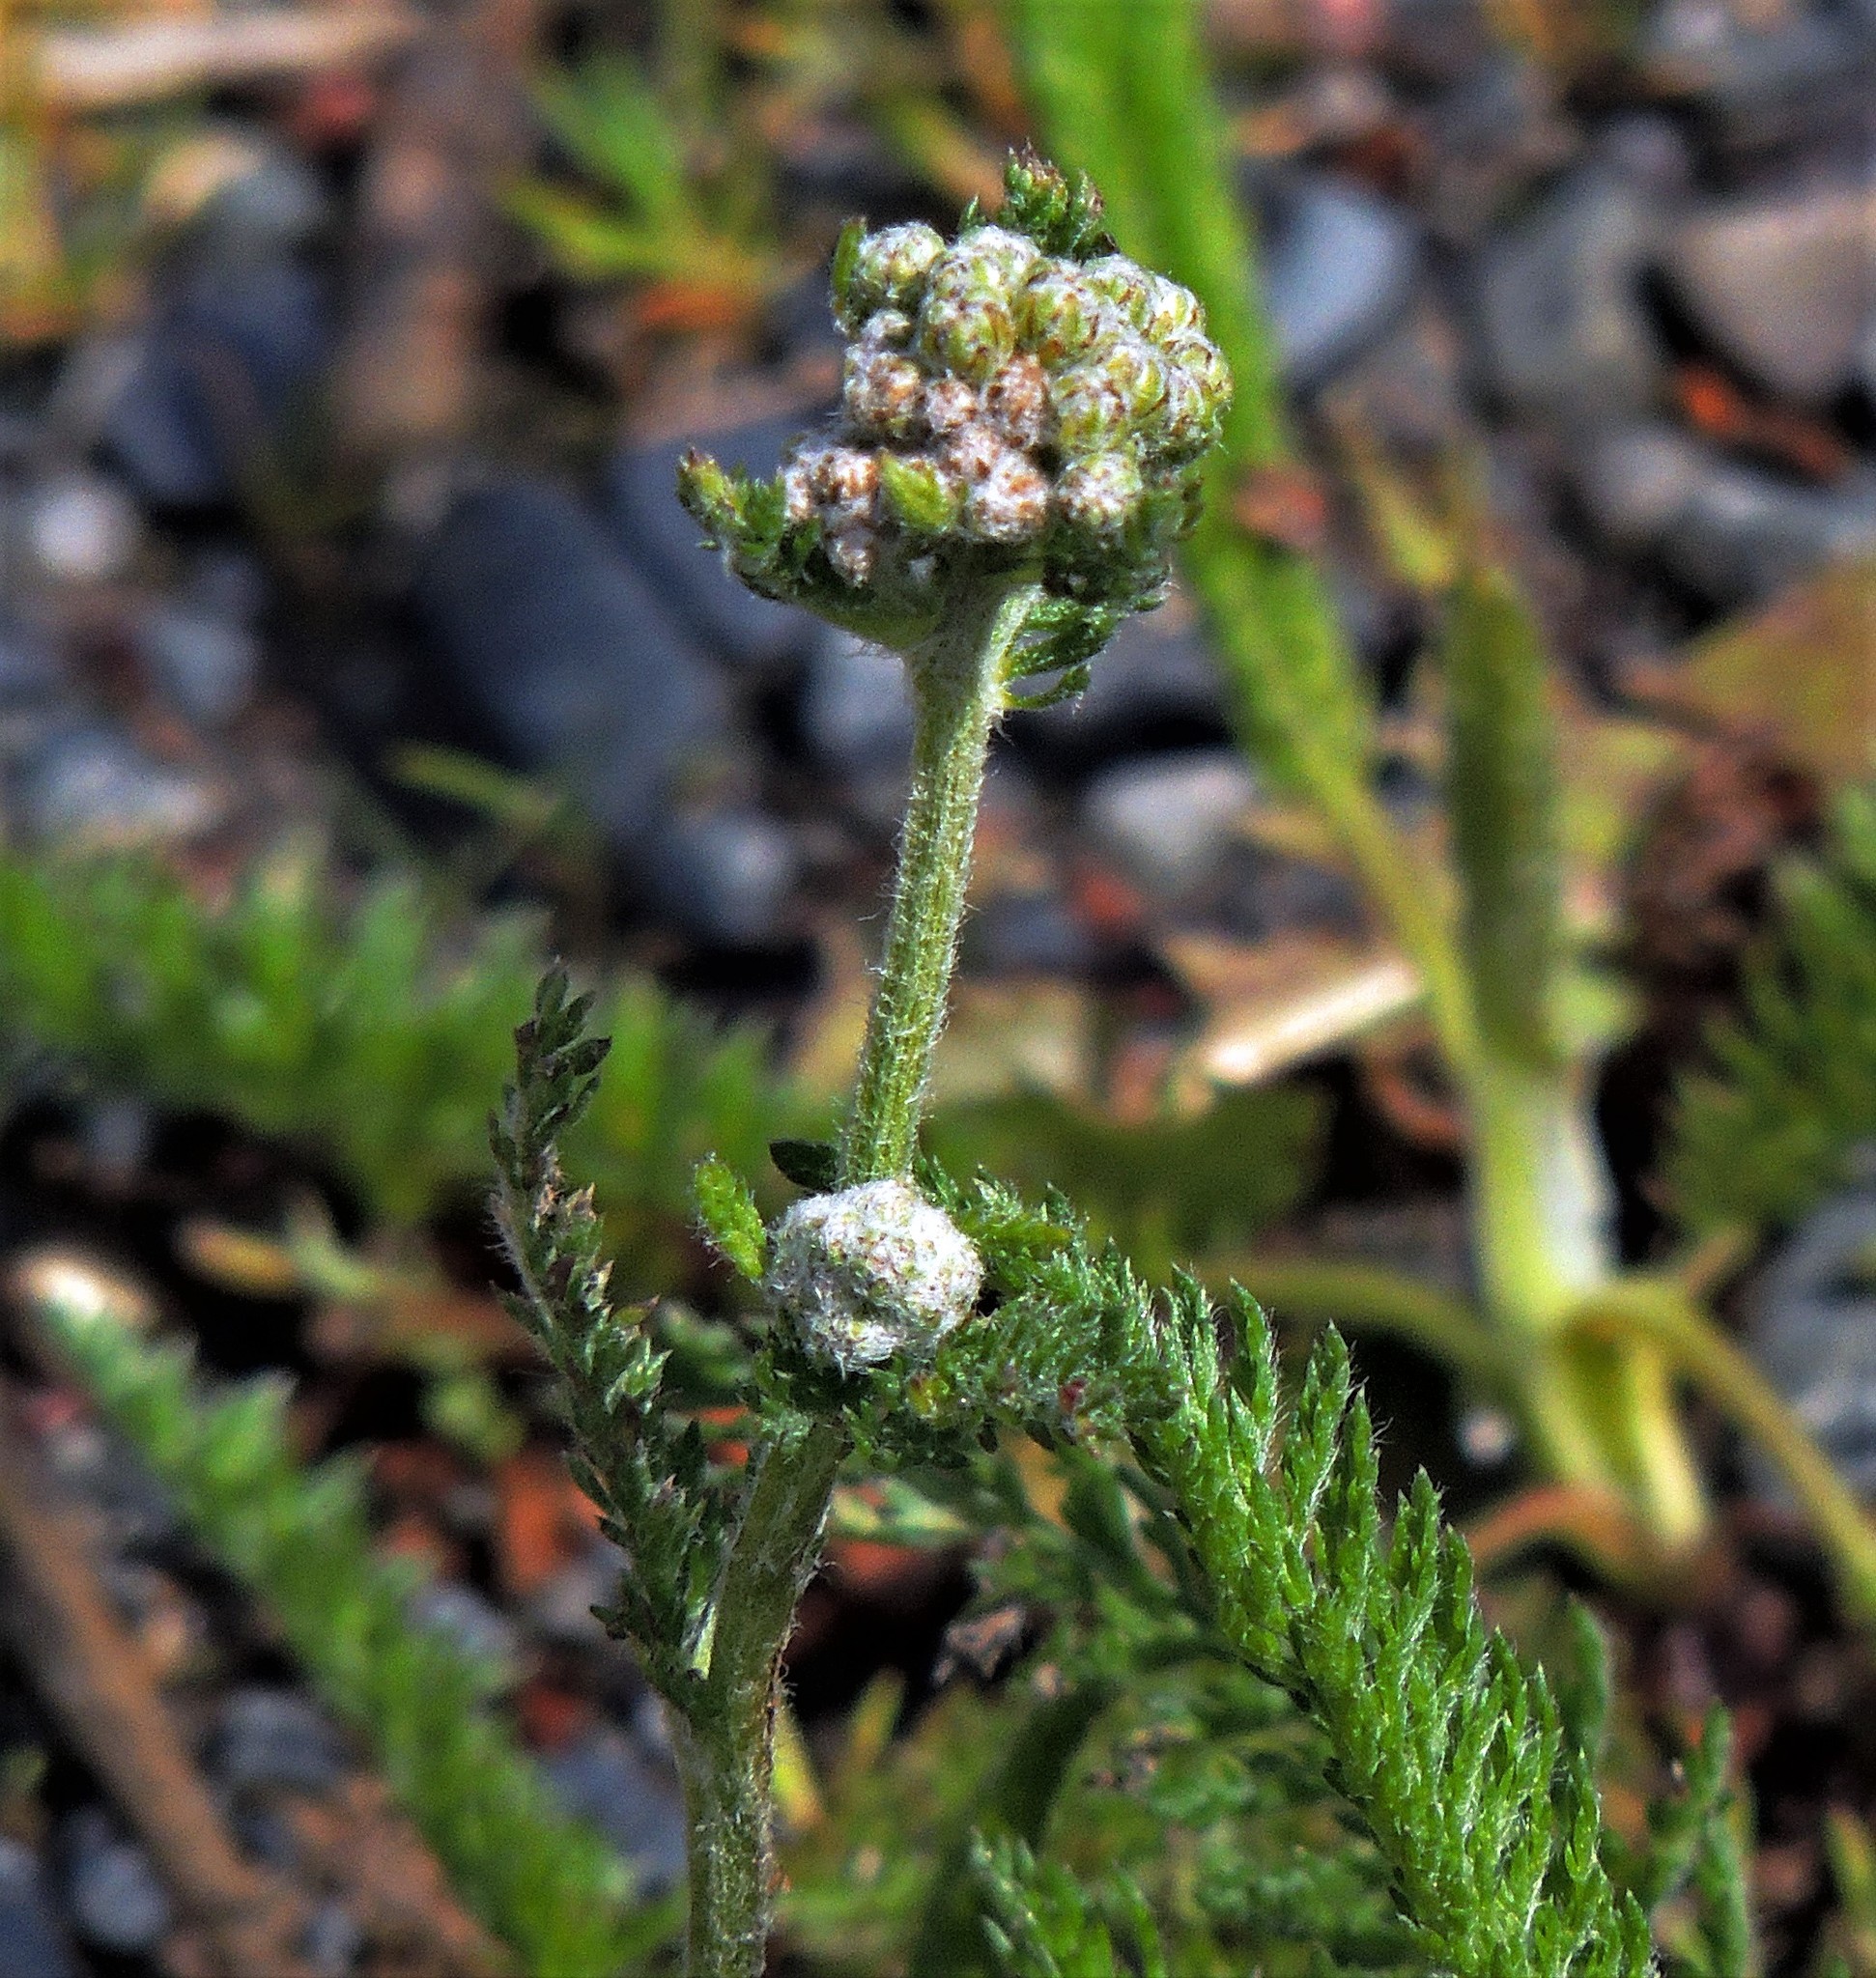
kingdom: Plantae
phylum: Tracheophyta
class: Magnoliopsida
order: Asterales
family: Asteraceae
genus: Achillea
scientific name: Achillea millefolium
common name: Yarrow
